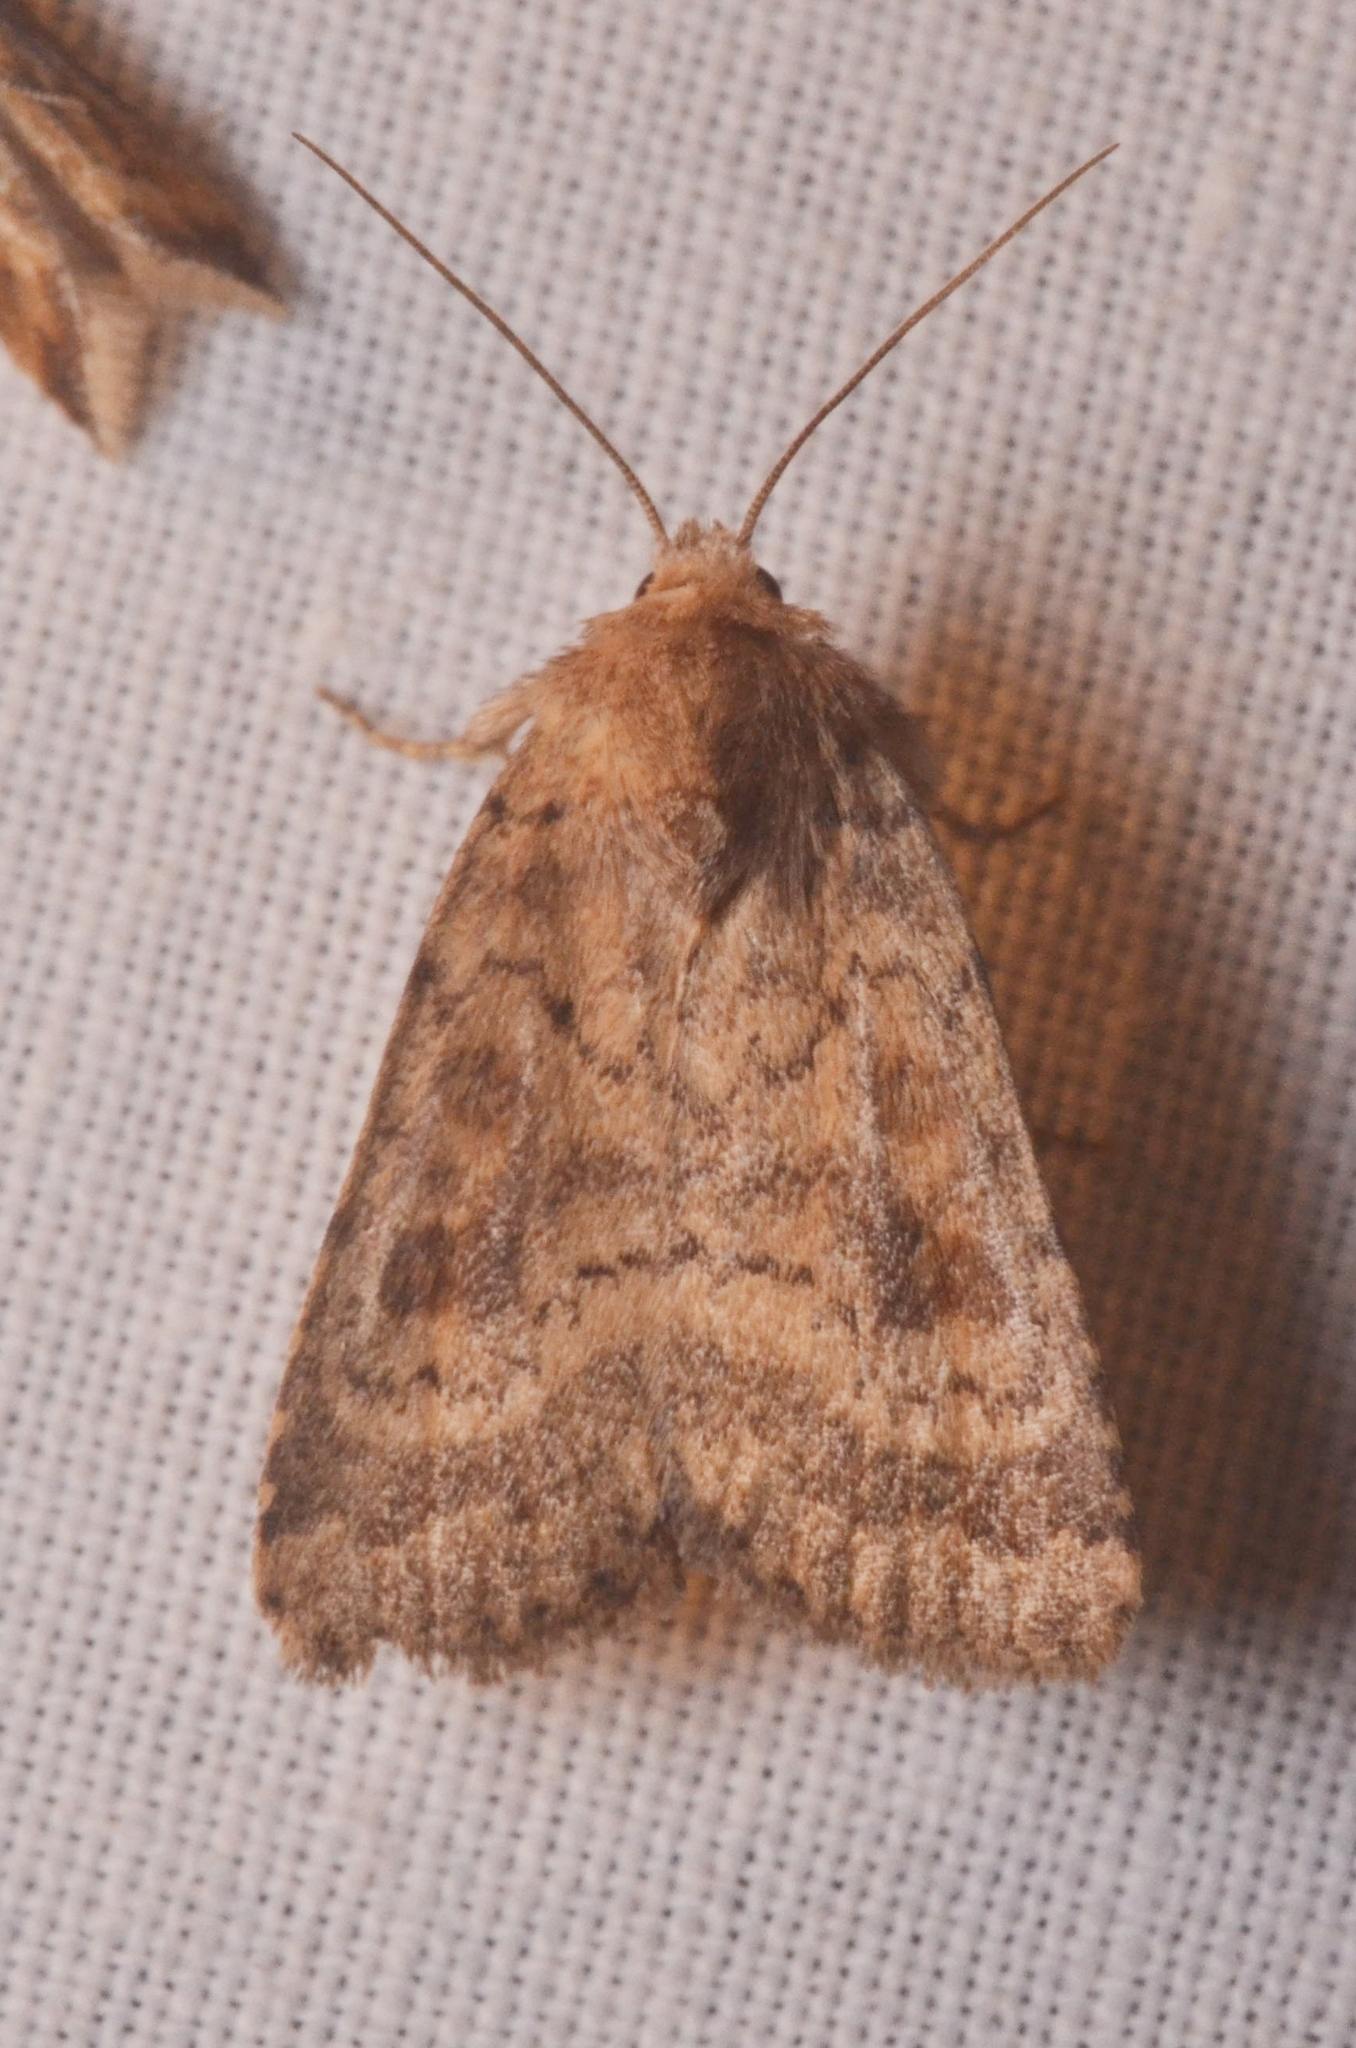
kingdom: Animalia
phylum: Arthropoda
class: Insecta
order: Lepidoptera
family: Noctuidae
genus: Caradrina
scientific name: Caradrina morpheus
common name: Mottled rustic
